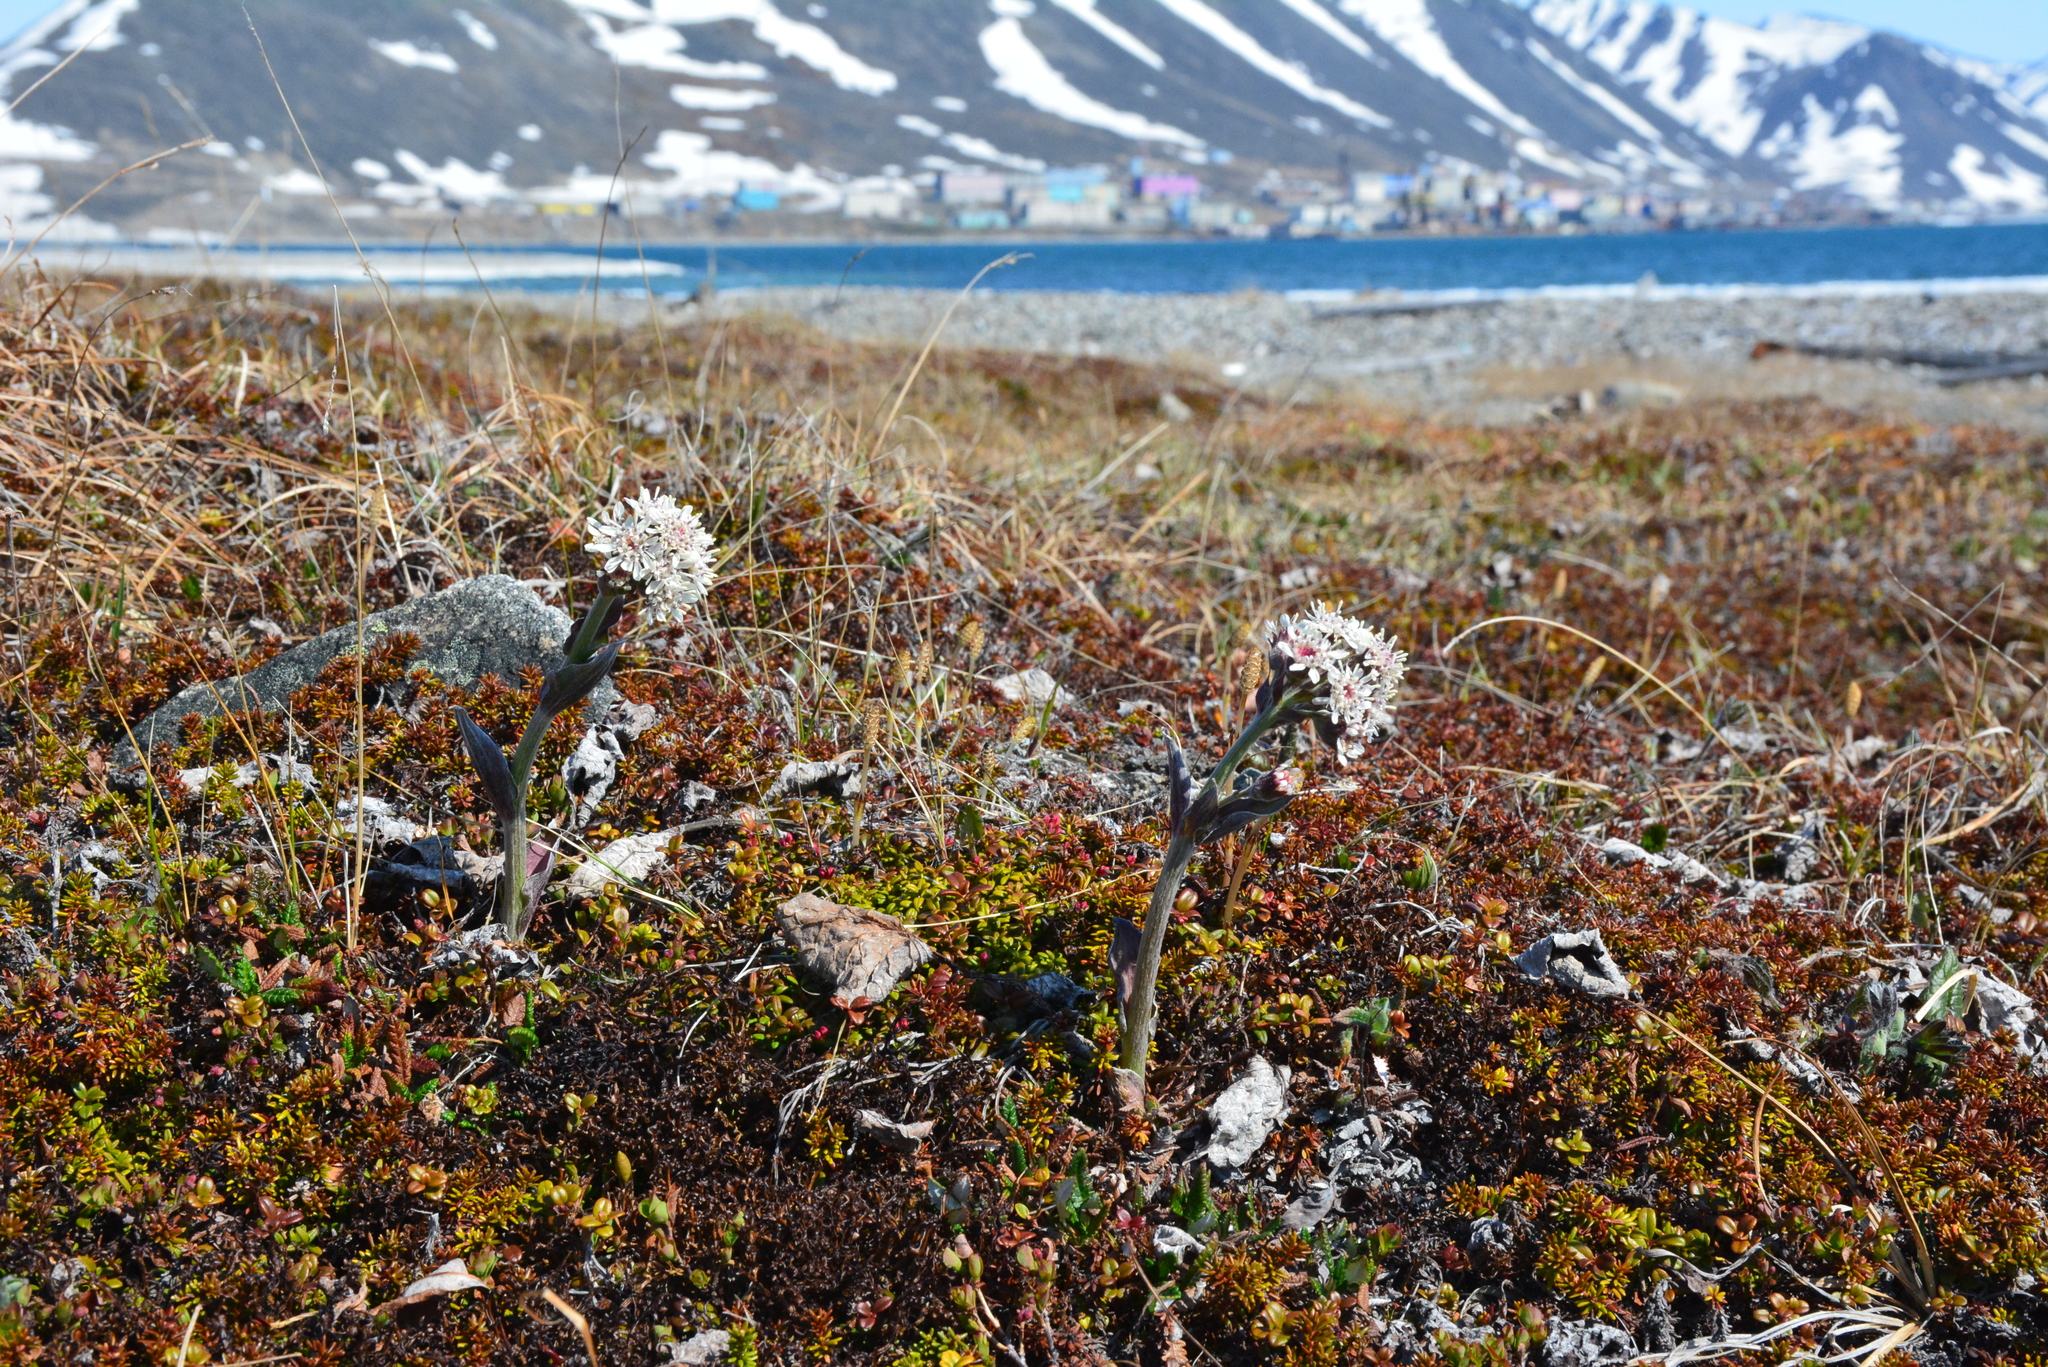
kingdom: Plantae
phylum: Tracheophyta
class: Magnoliopsida
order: Asterales
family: Asteraceae
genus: Petasites
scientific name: Petasites frigidus
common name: Arctic butterbur
